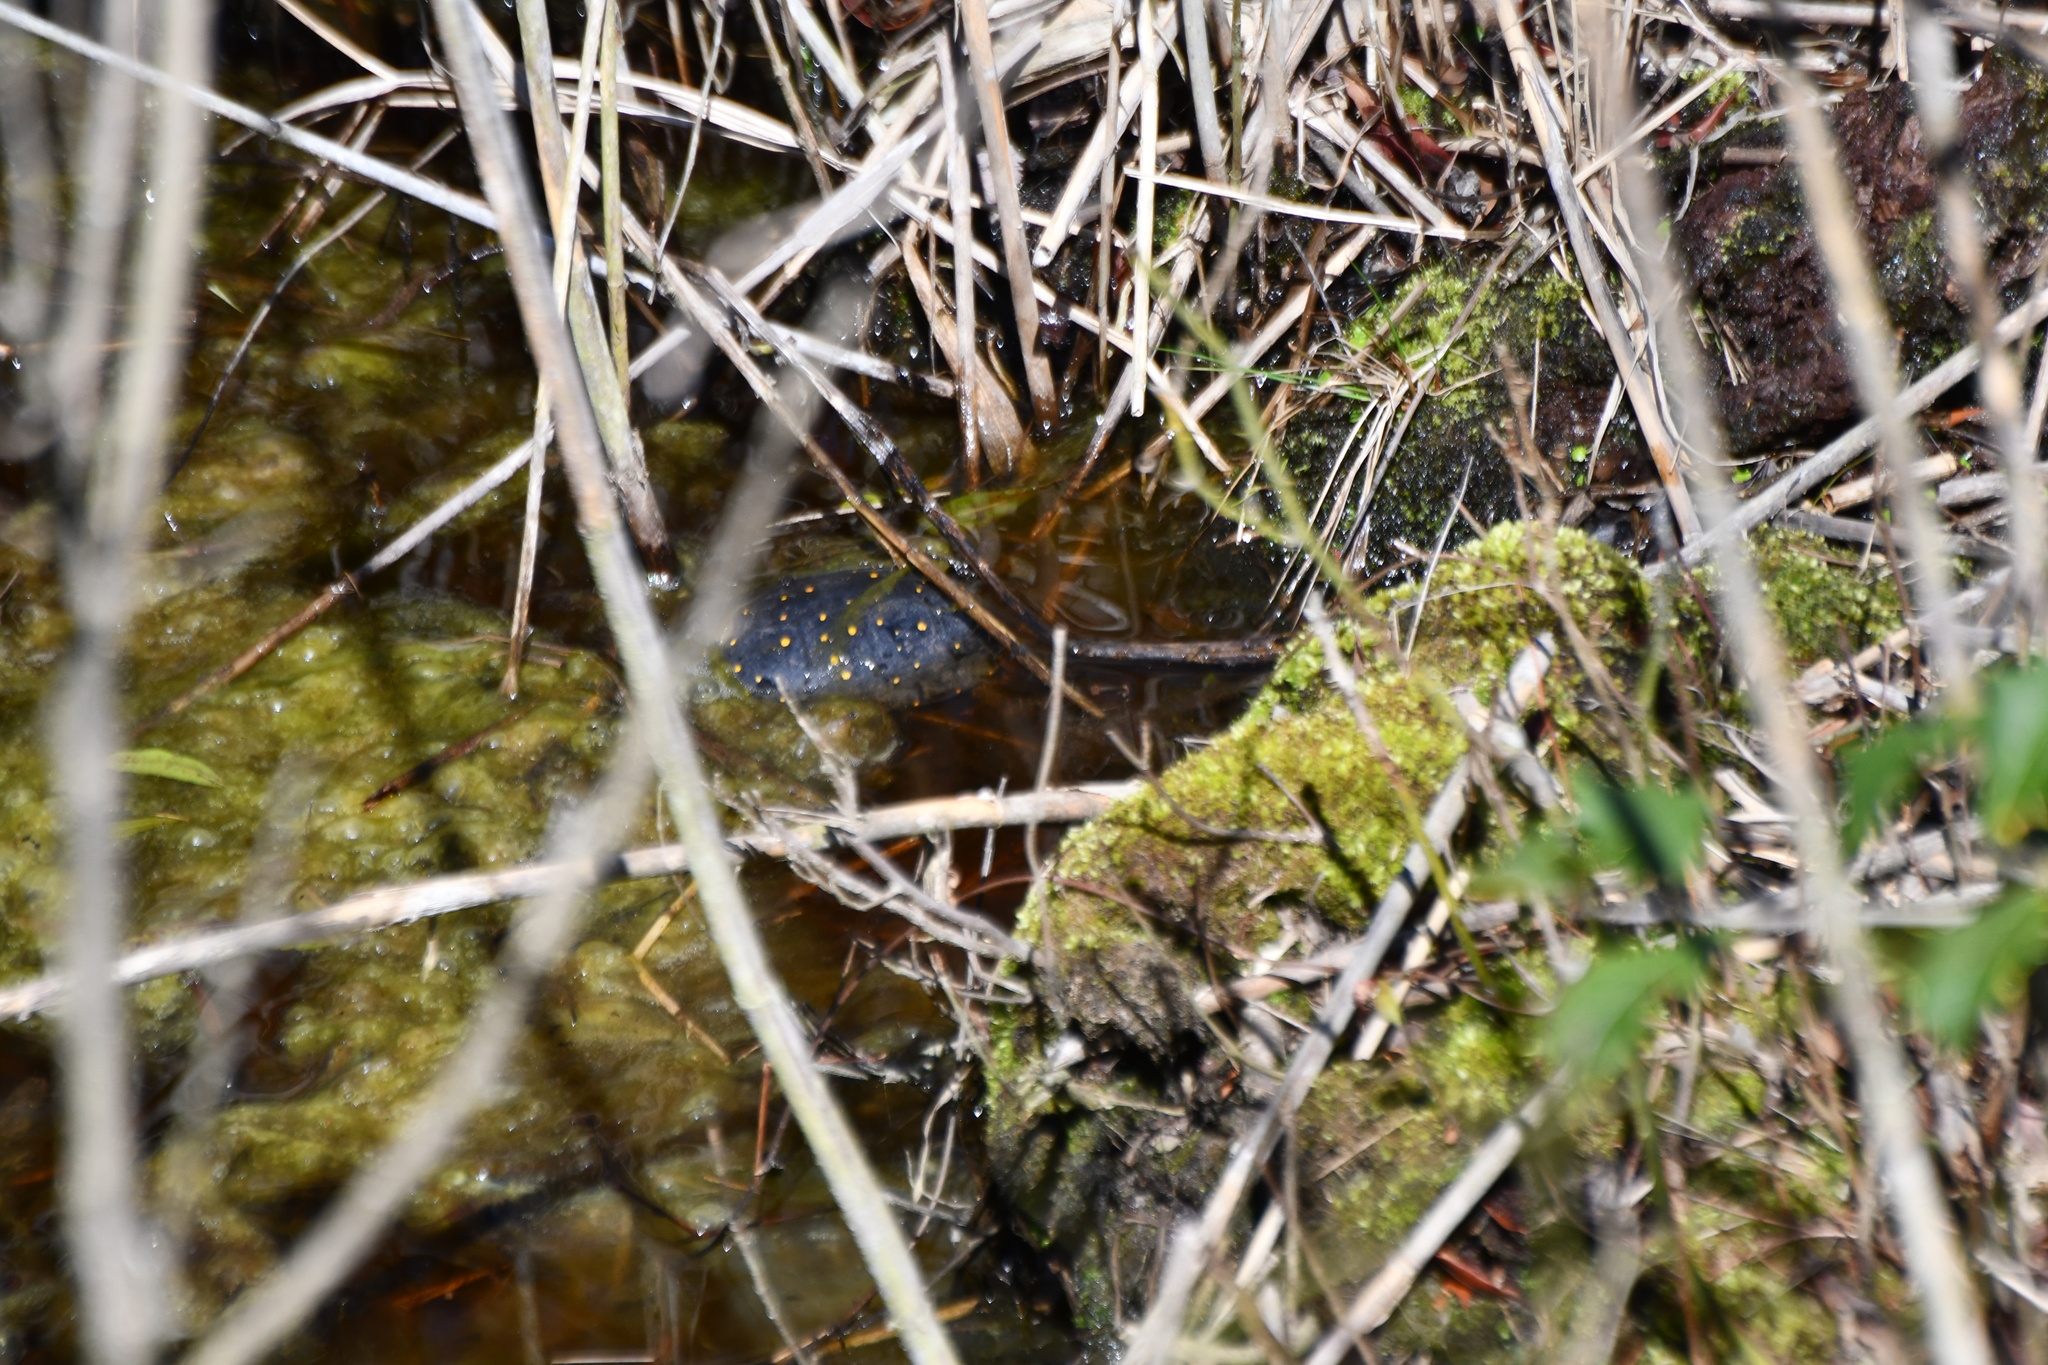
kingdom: Animalia
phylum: Chordata
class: Testudines
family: Emydidae
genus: Clemmys
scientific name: Clemmys guttata
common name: Spotted turtle
